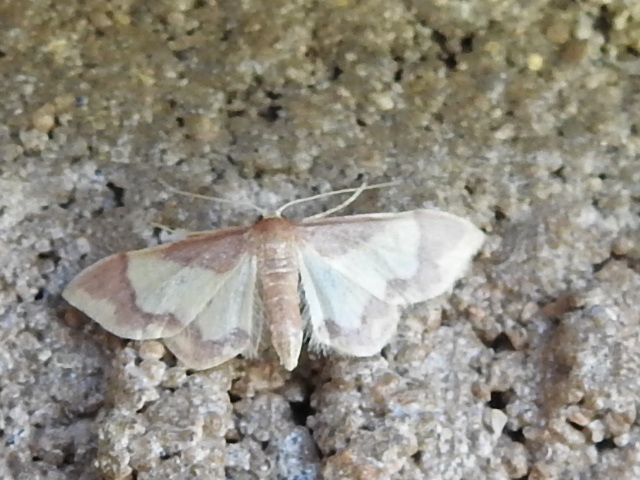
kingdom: Animalia
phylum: Arthropoda
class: Insecta
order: Lepidoptera
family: Geometridae
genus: Idaea
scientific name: Idaea basinta
